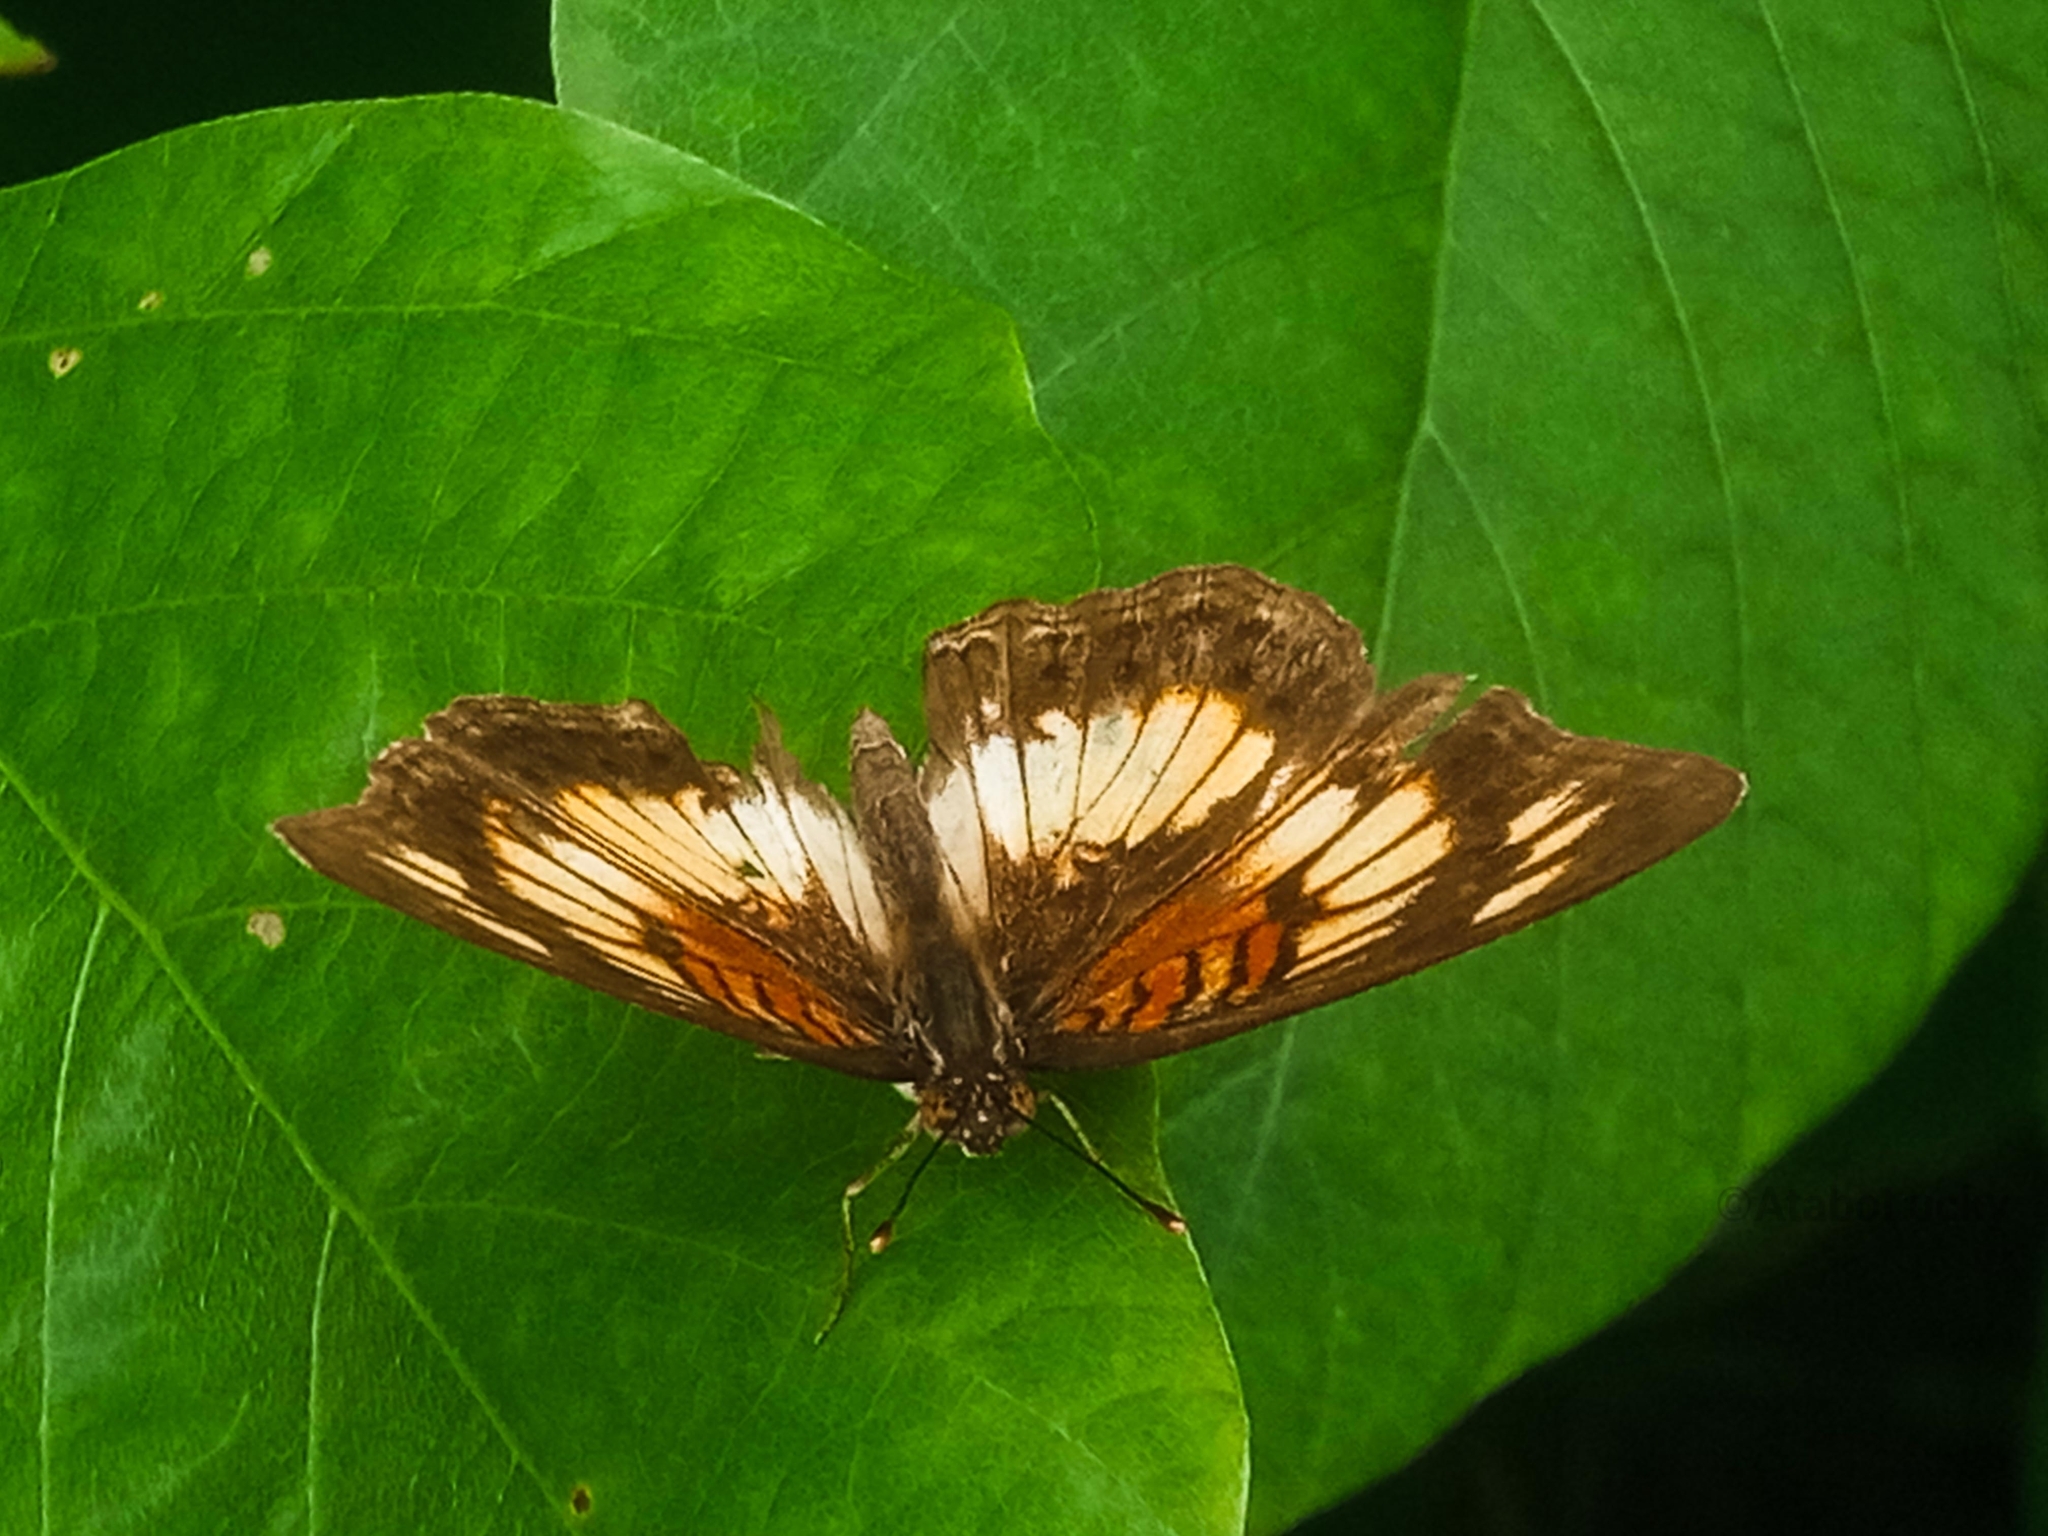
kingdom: Animalia
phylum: Arthropoda
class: Insecta
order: Lepidoptera
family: Nymphalidae
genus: Junonia
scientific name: Junonia sophia
